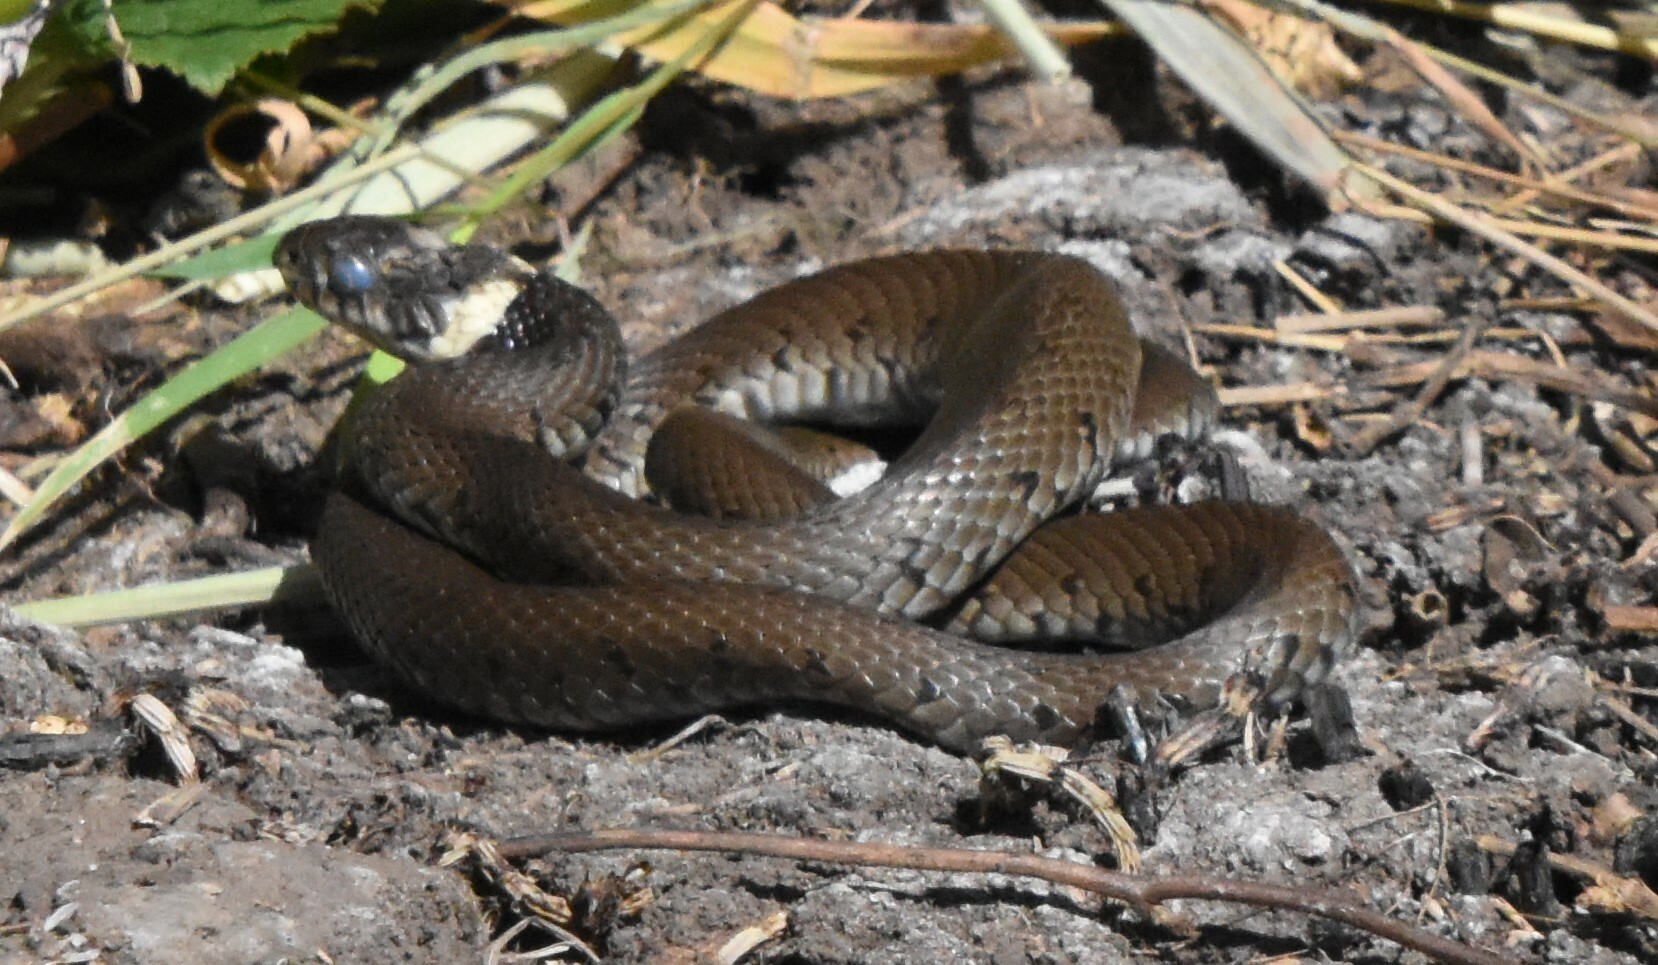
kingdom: Animalia
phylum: Chordata
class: Squamata
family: Colubridae
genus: Natrix
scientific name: Natrix helvetica
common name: Banded grass snake
